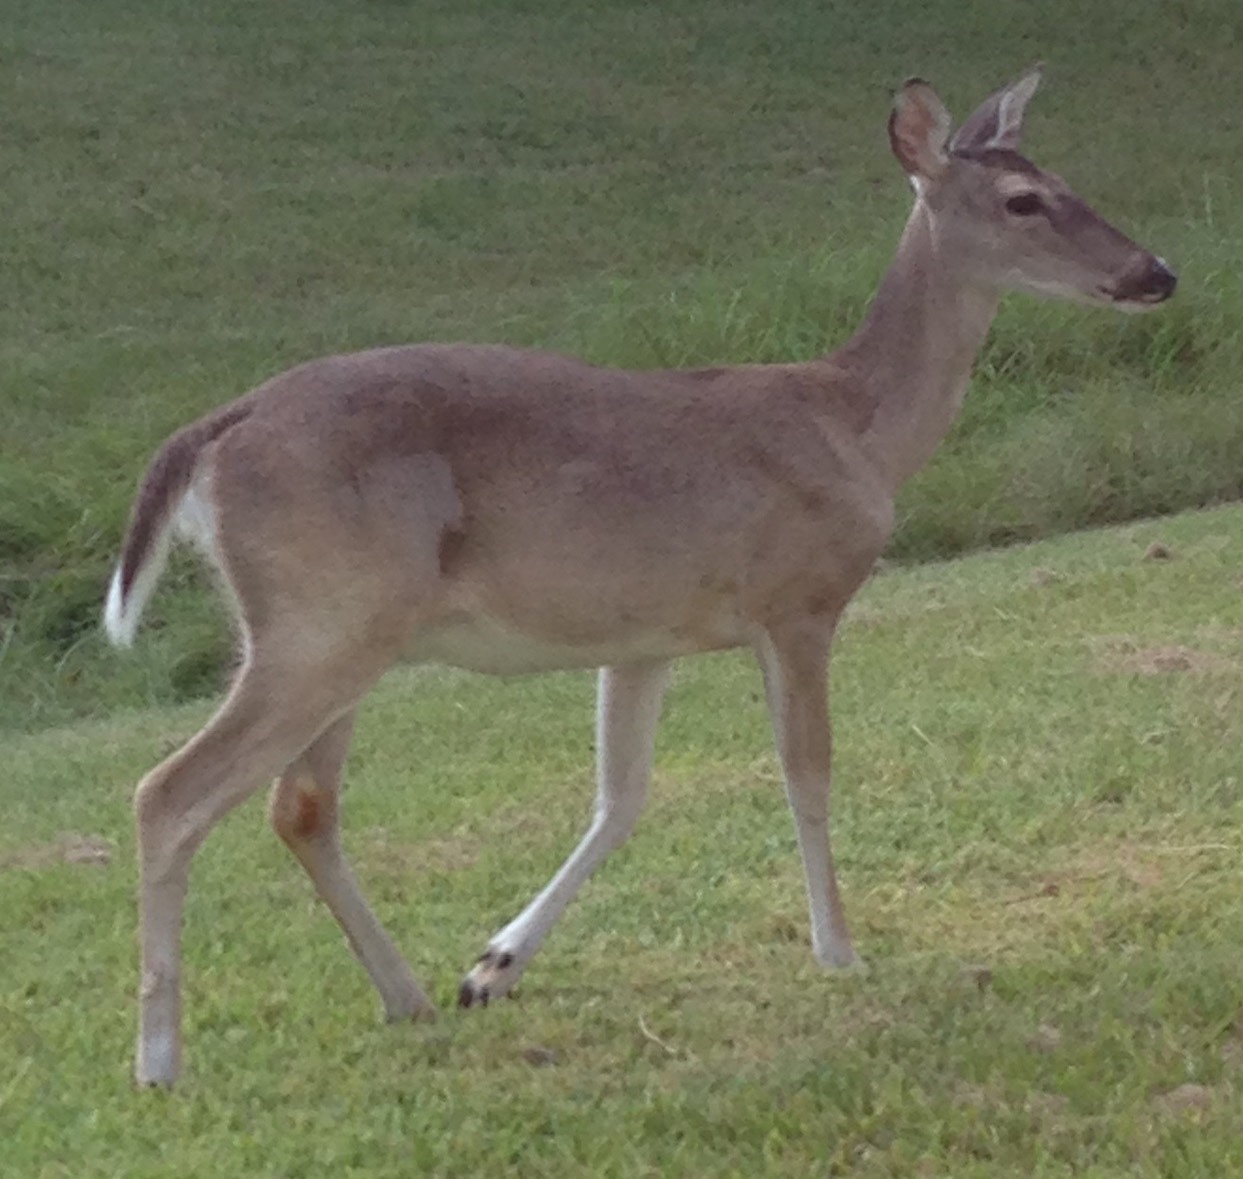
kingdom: Animalia
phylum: Chordata
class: Mammalia
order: Artiodactyla
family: Cervidae
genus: Odocoileus
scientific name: Odocoileus virginianus
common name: White-tailed deer
